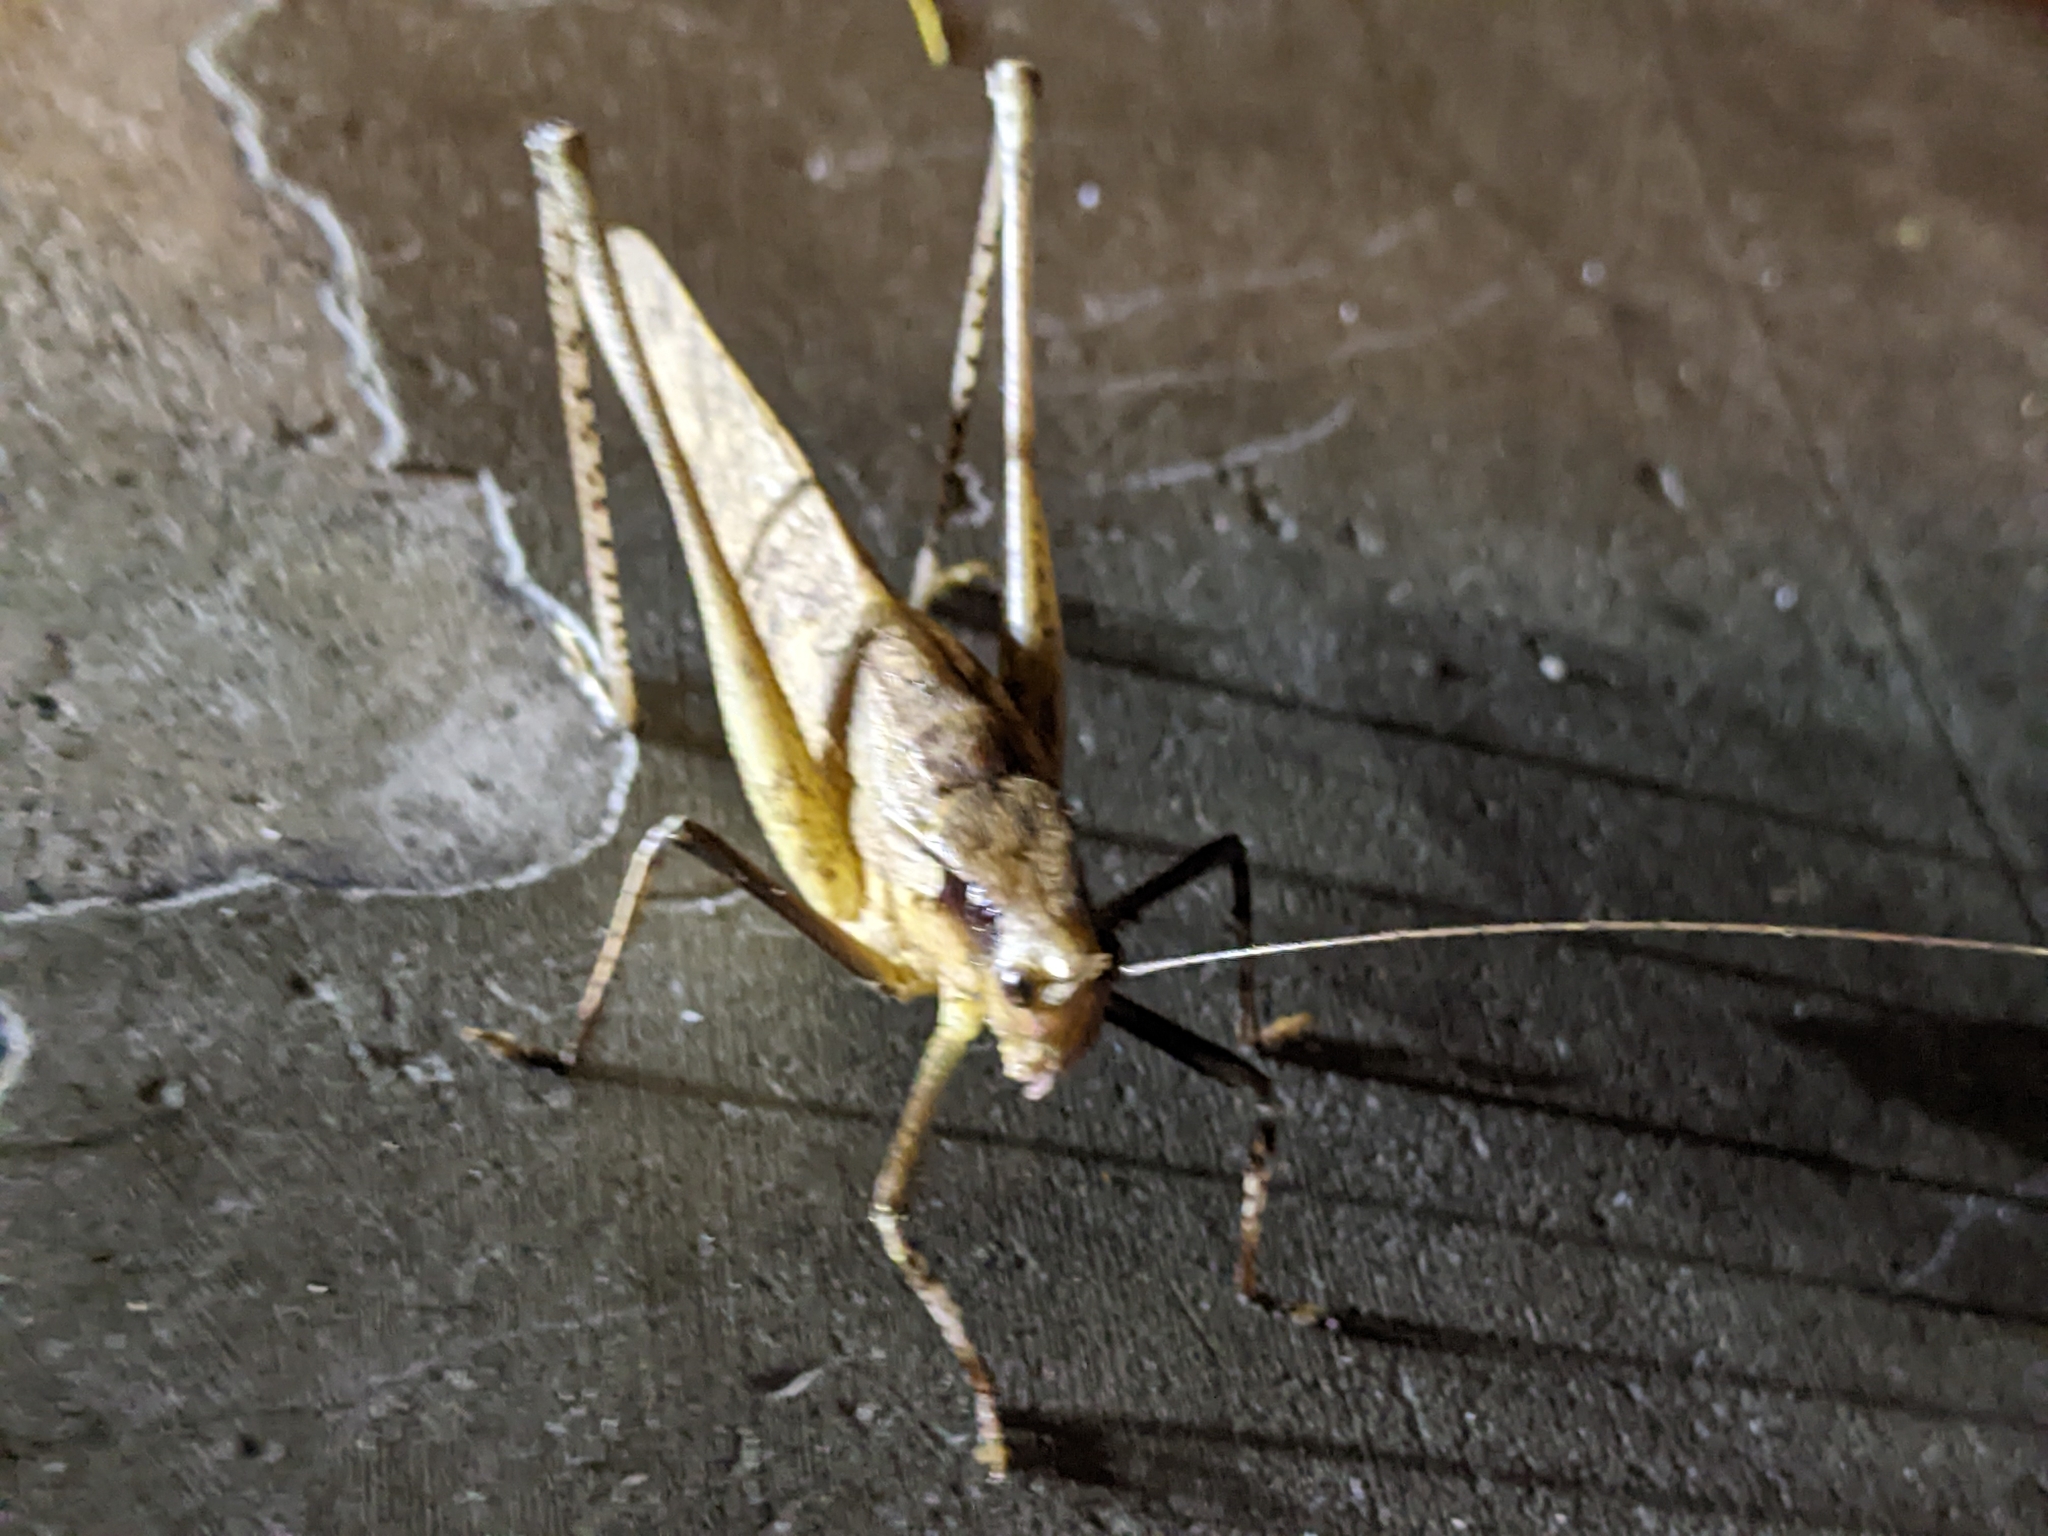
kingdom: Animalia
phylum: Arthropoda
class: Insecta
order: Orthoptera
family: Tettigoniidae
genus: Mecopoda
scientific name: Mecopoda elongata
